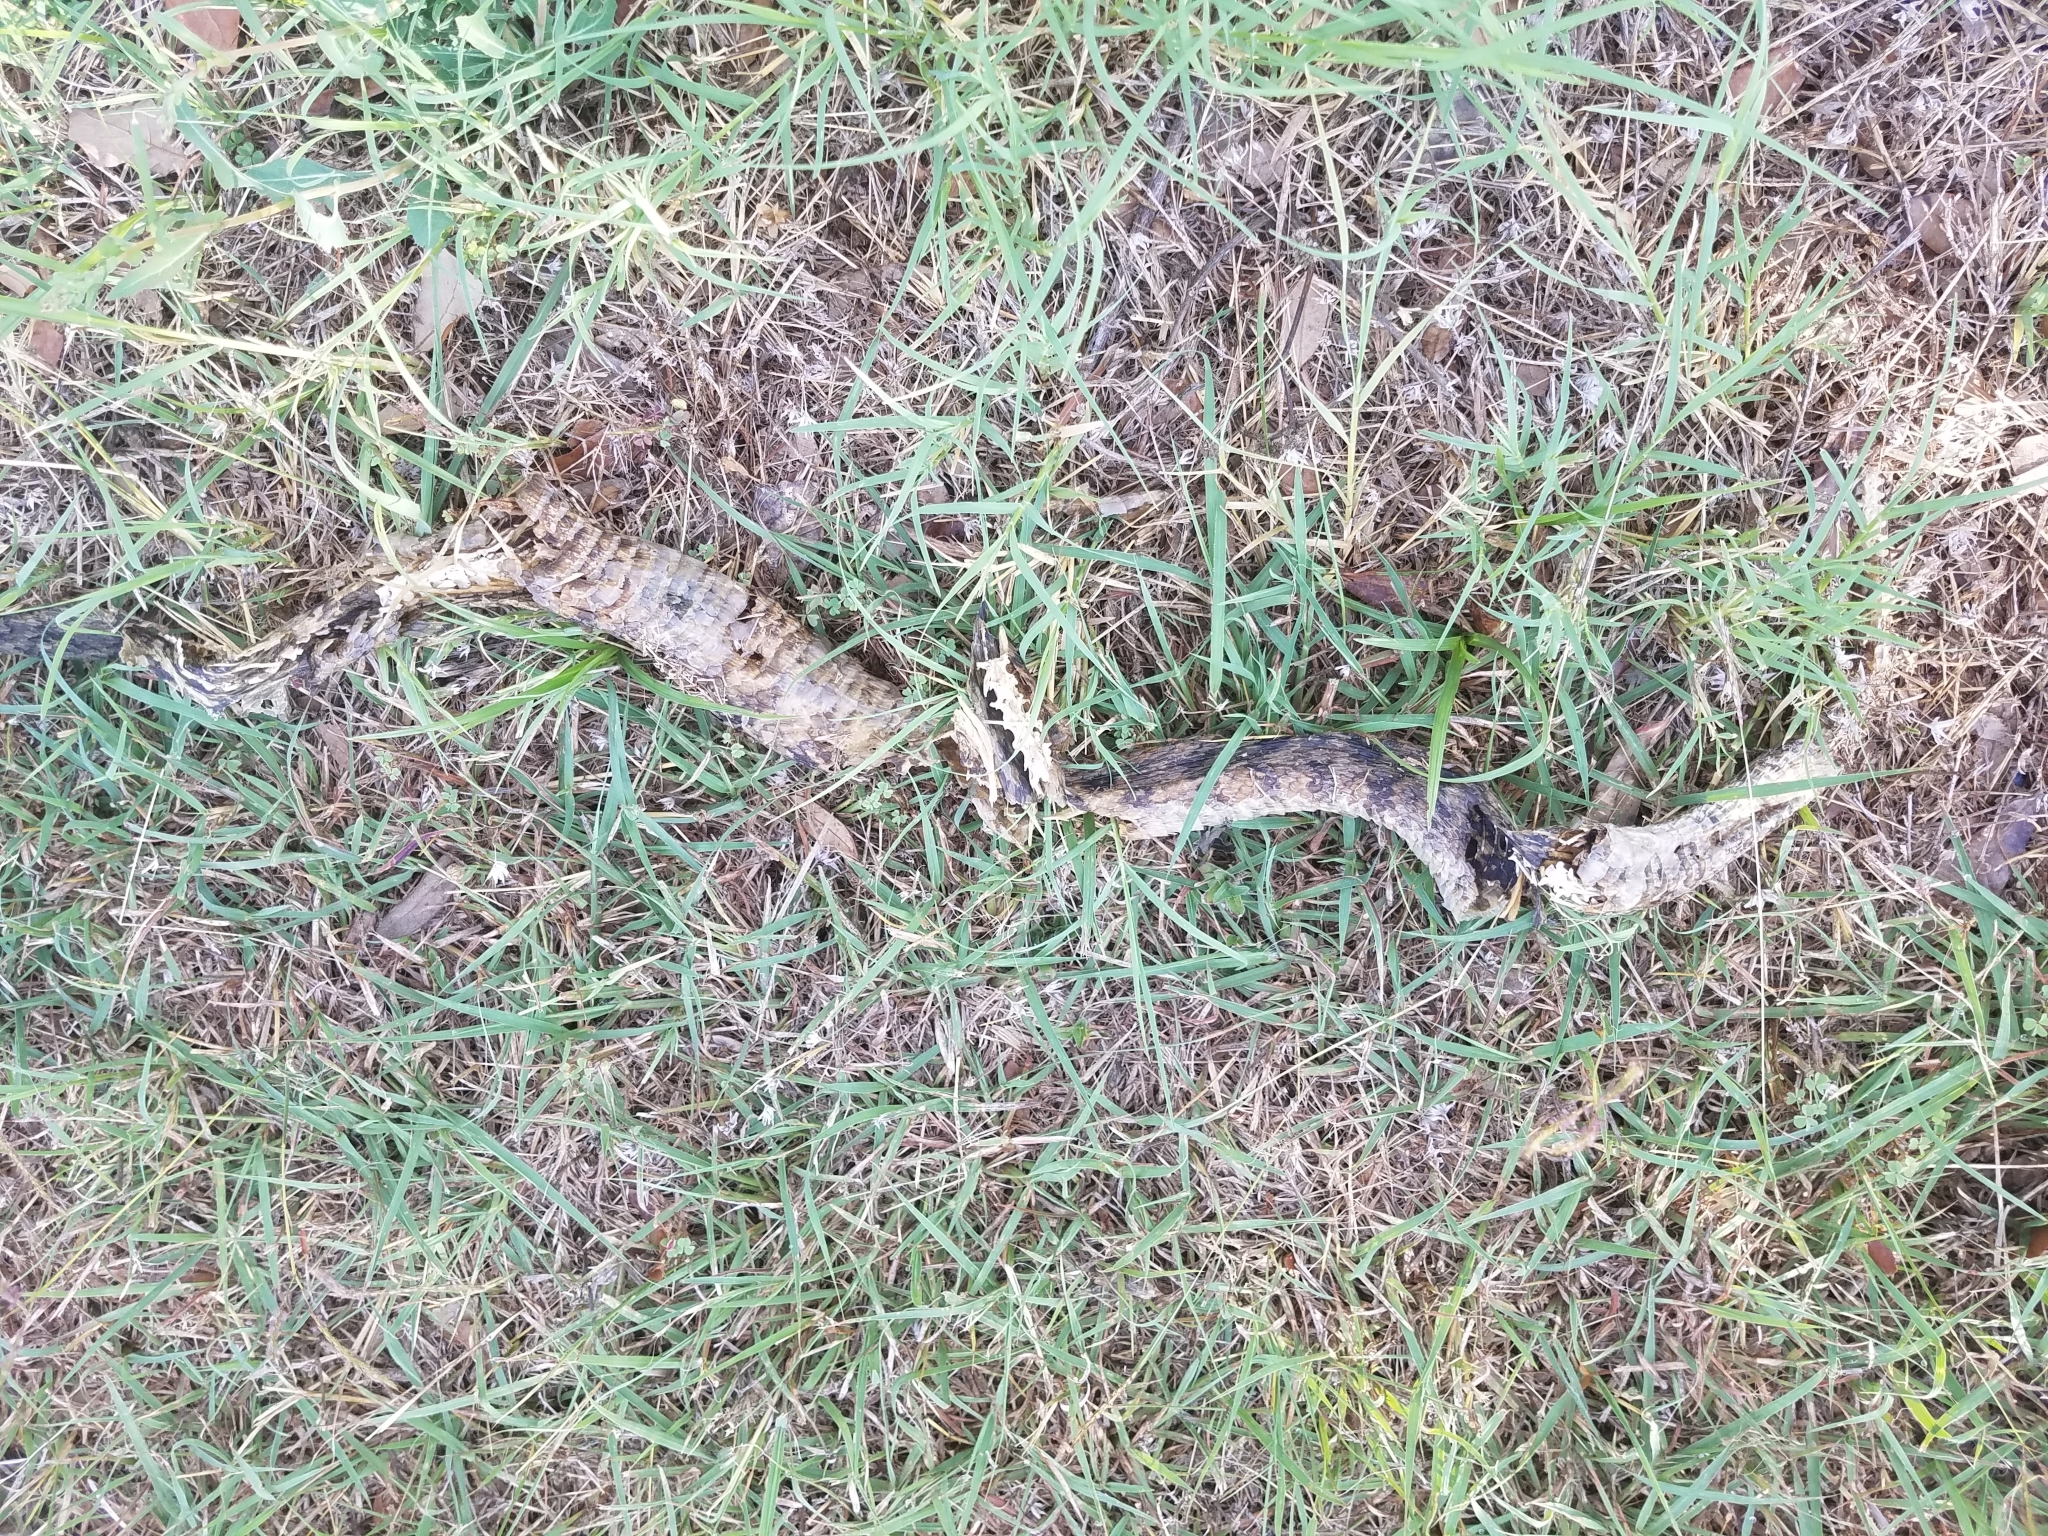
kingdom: Animalia
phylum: Chordata
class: Squamata
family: Colubridae
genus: Nerodia
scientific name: Nerodia rhombifer
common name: Diamondback water snake
